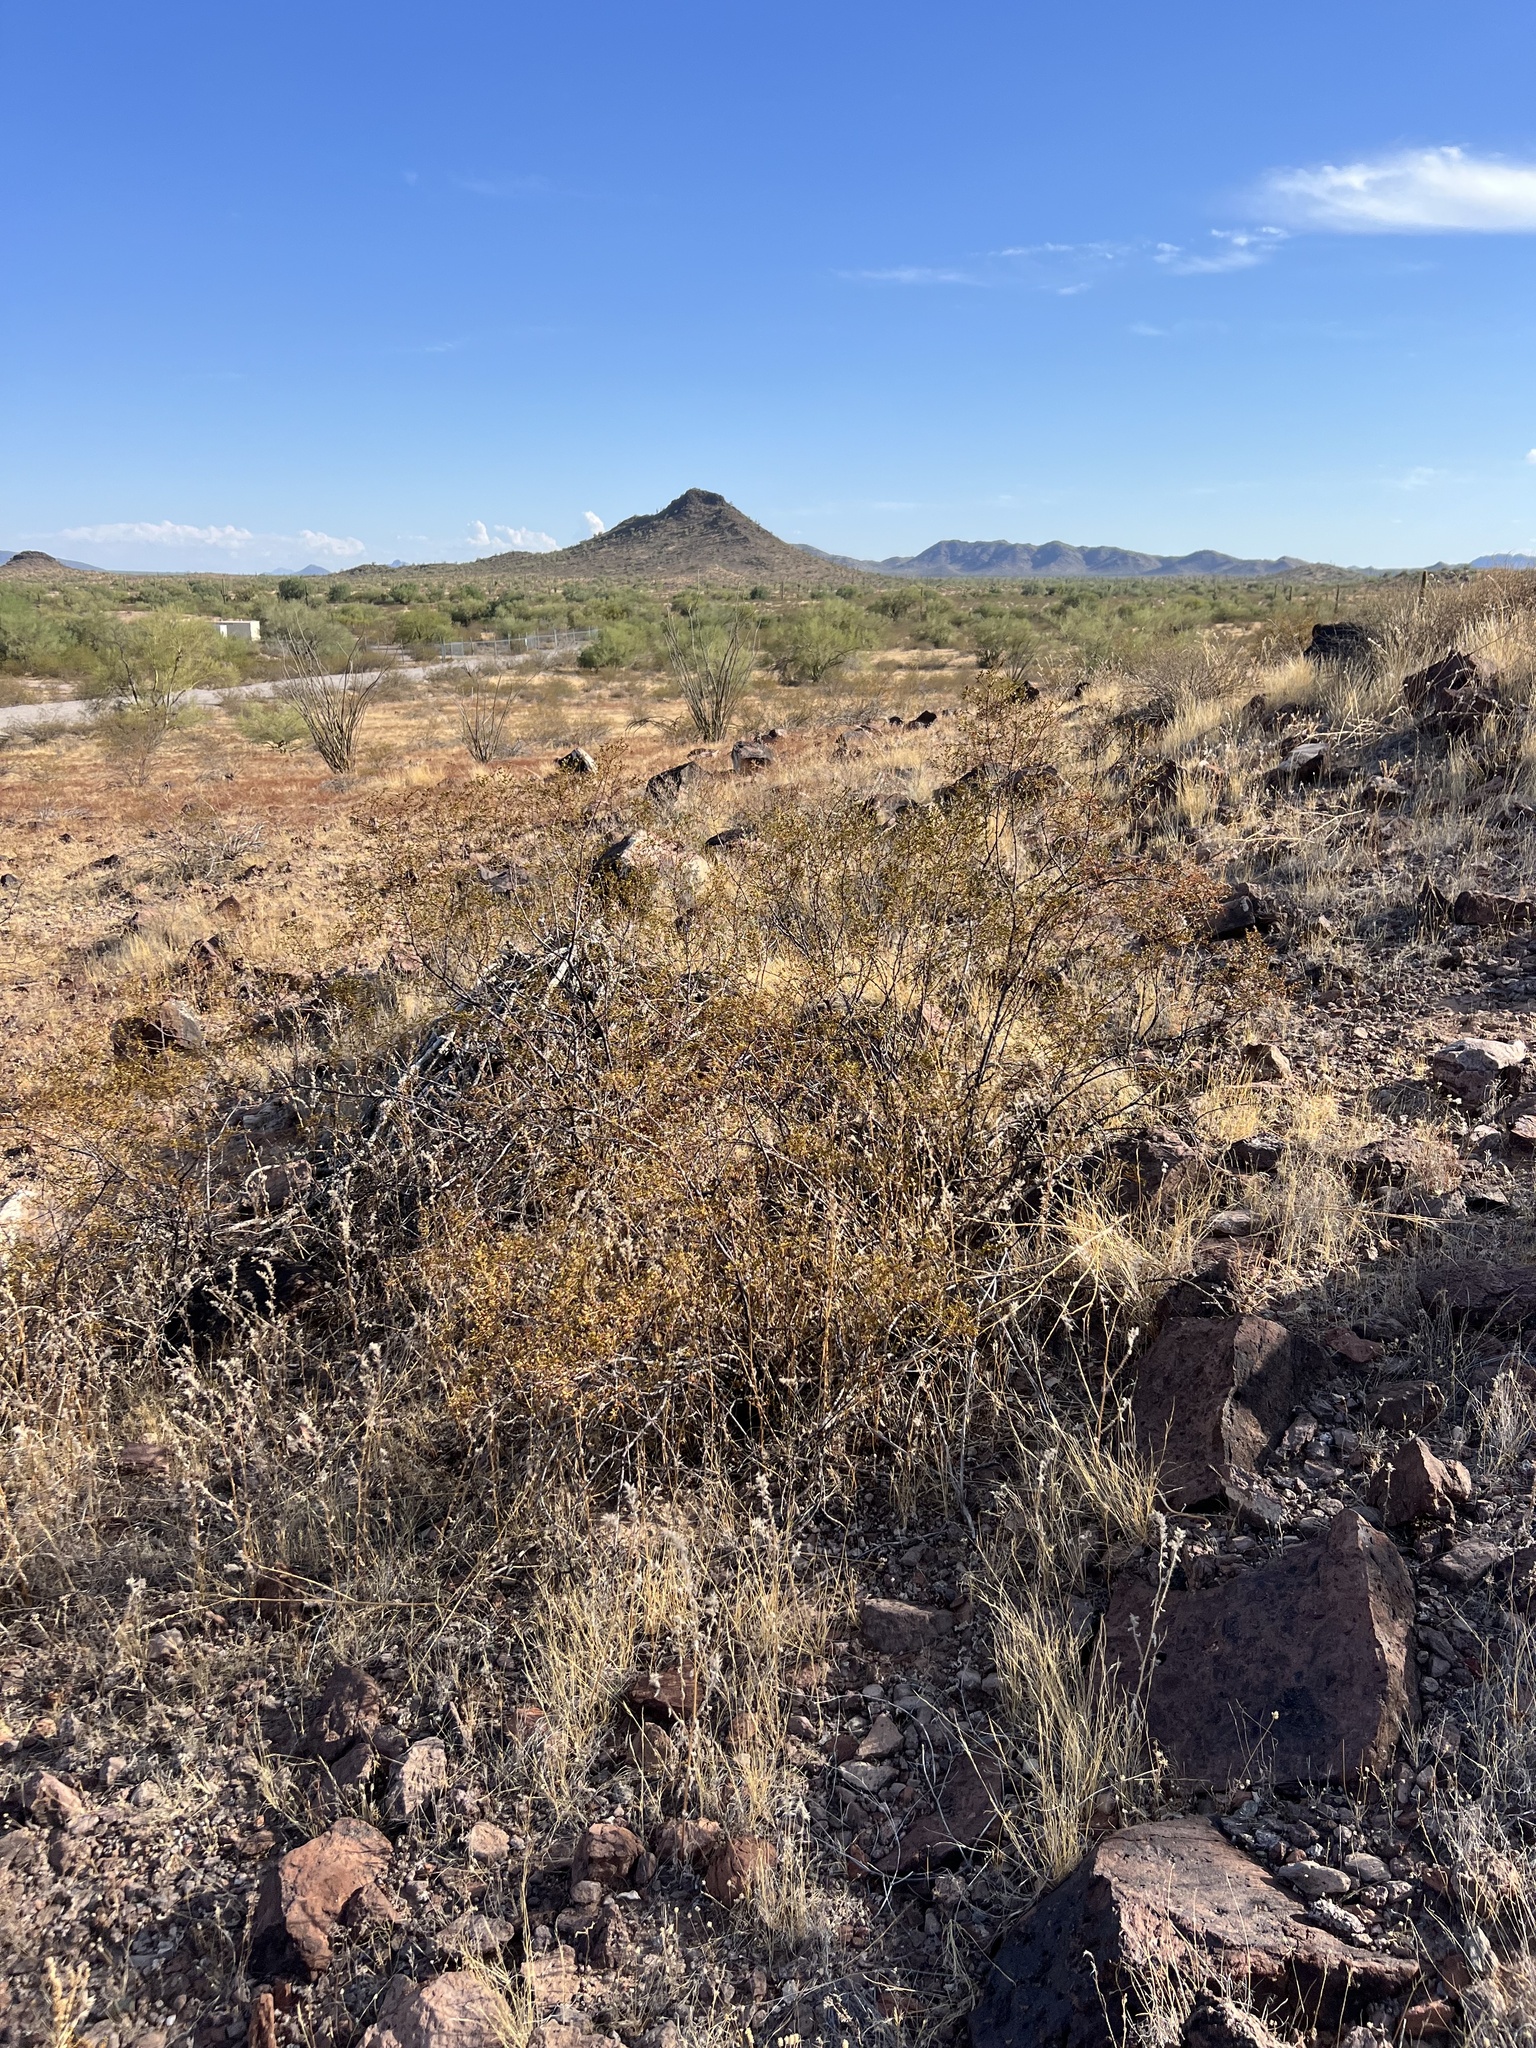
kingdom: Plantae
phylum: Tracheophyta
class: Magnoliopsida
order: Zygophyllales
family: Zygophyllaceae
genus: Larrea
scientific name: Larrea tridentata
